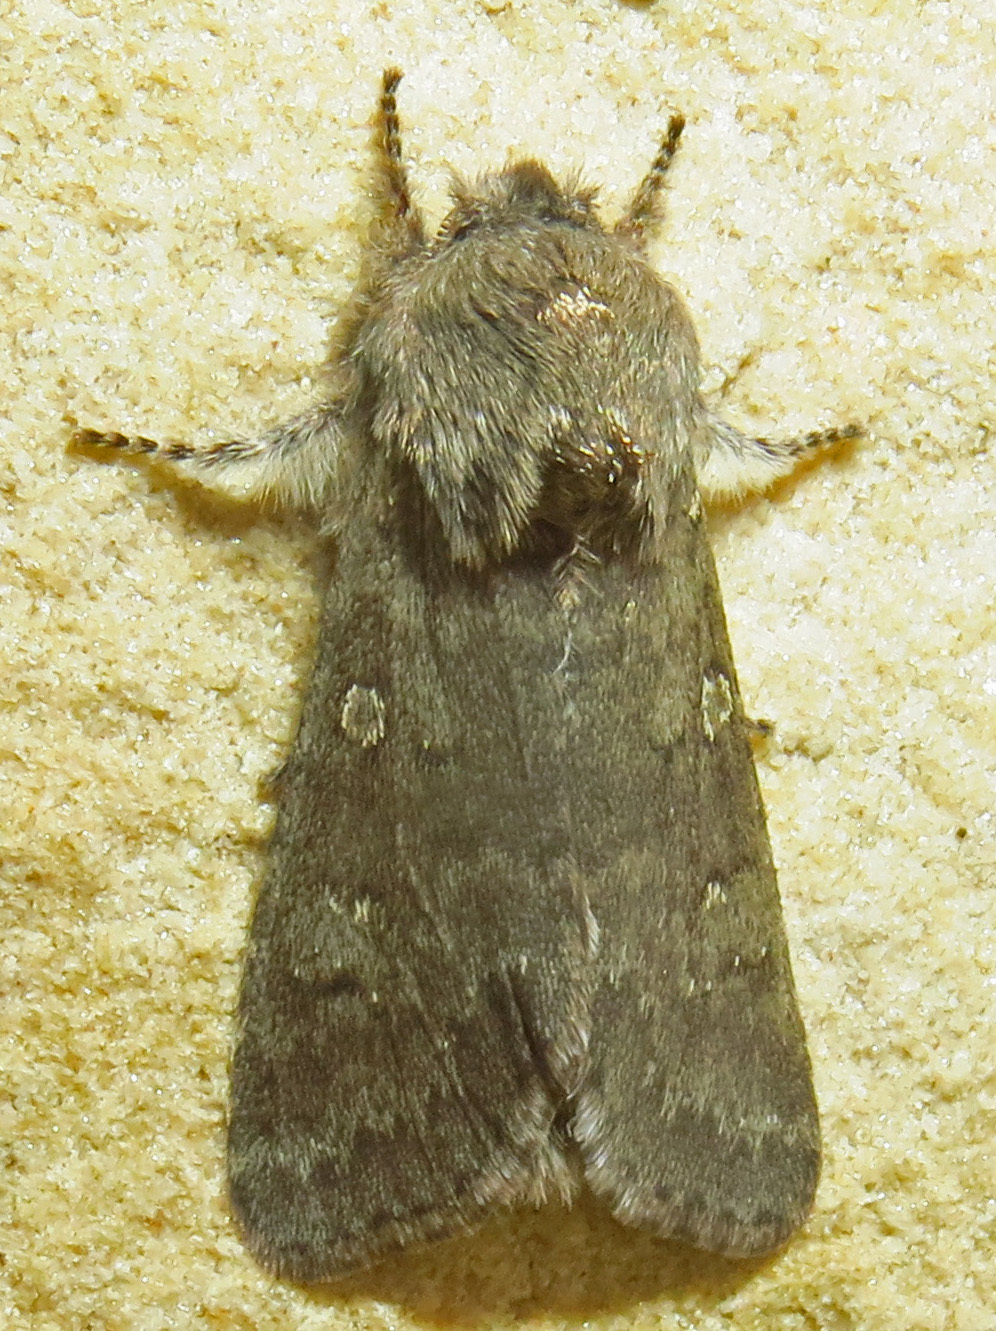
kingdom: Animalia
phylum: Arthropoda
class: Insecta
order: Lepidoptera
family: Noctuidae
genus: Psaphida
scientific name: Psaphida rolandi
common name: Roland's sallow
